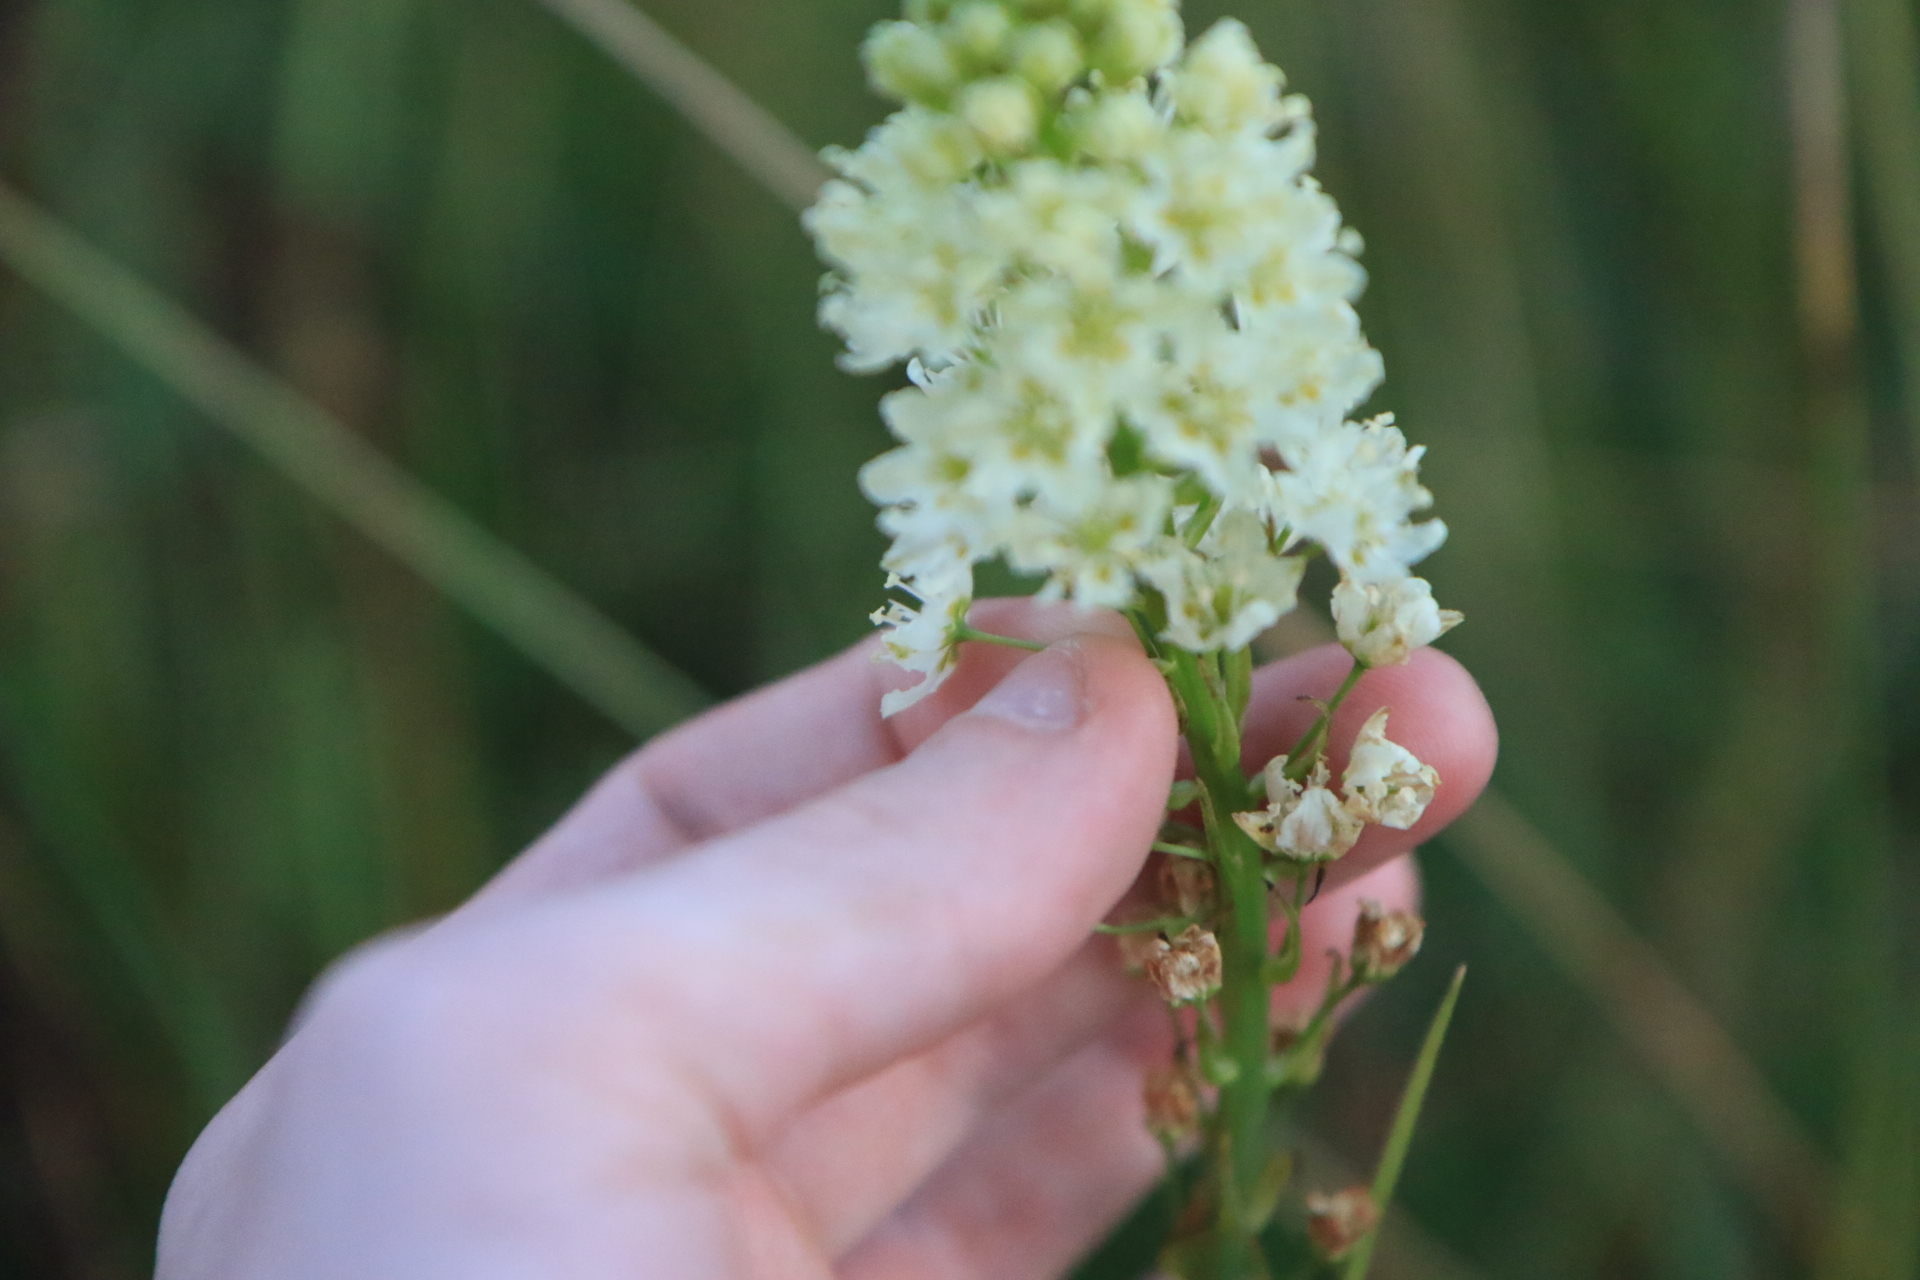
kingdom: Plantae
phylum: Tracheophyta
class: Liliopsida
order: Liliales
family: Melanthiaceae
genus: Toxicoscordion
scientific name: Toxicoscordion venenosum
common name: Meadow death camas
